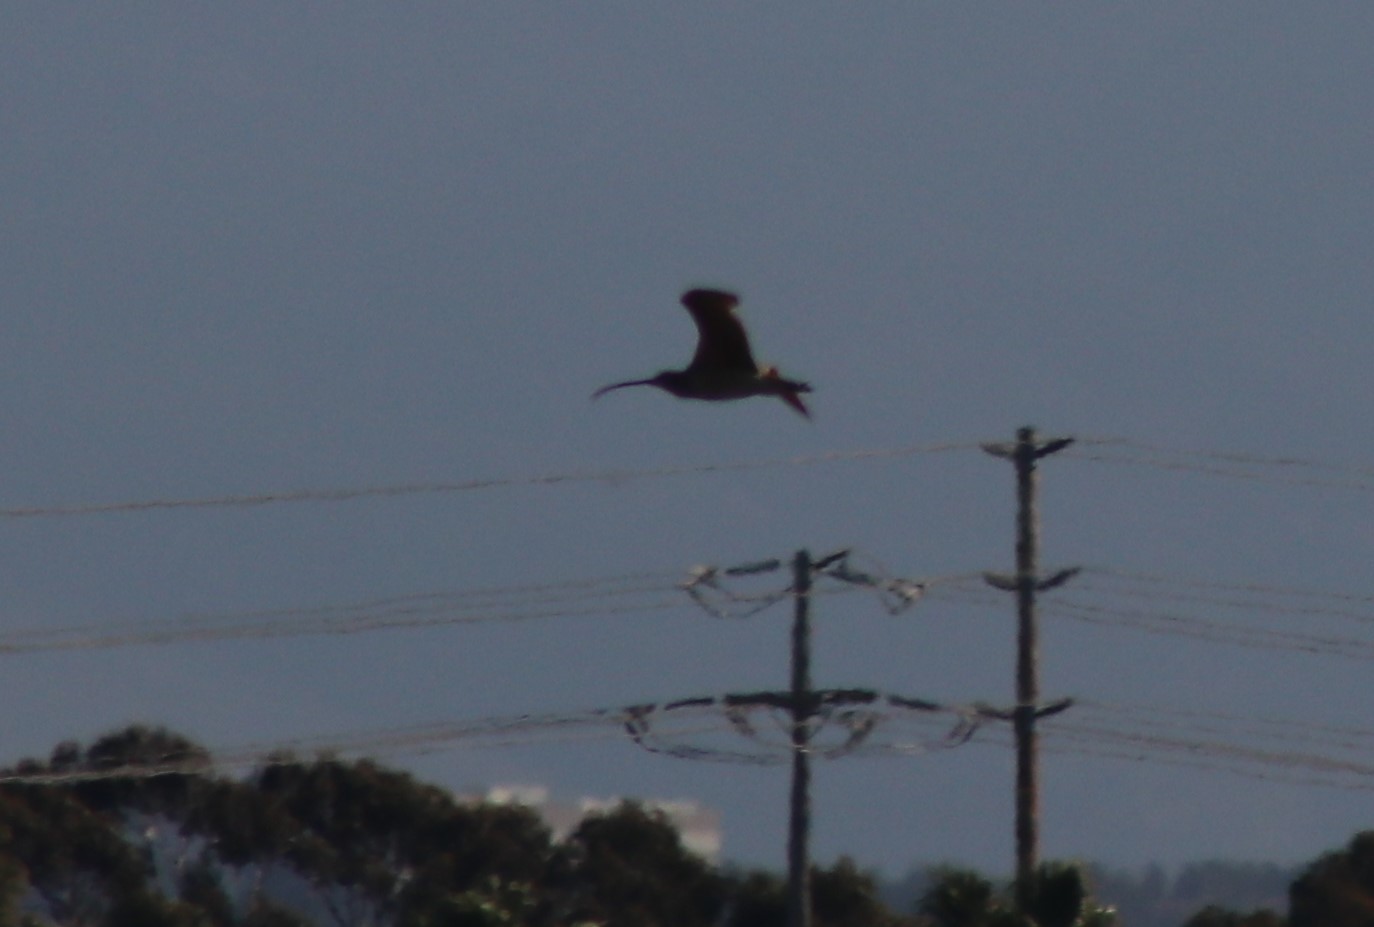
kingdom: Animalia
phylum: Chordata
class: Aves
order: Charadriiformes
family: Scolopacidae
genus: Numenius
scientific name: Numenius americanus
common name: Long-billed curlew
